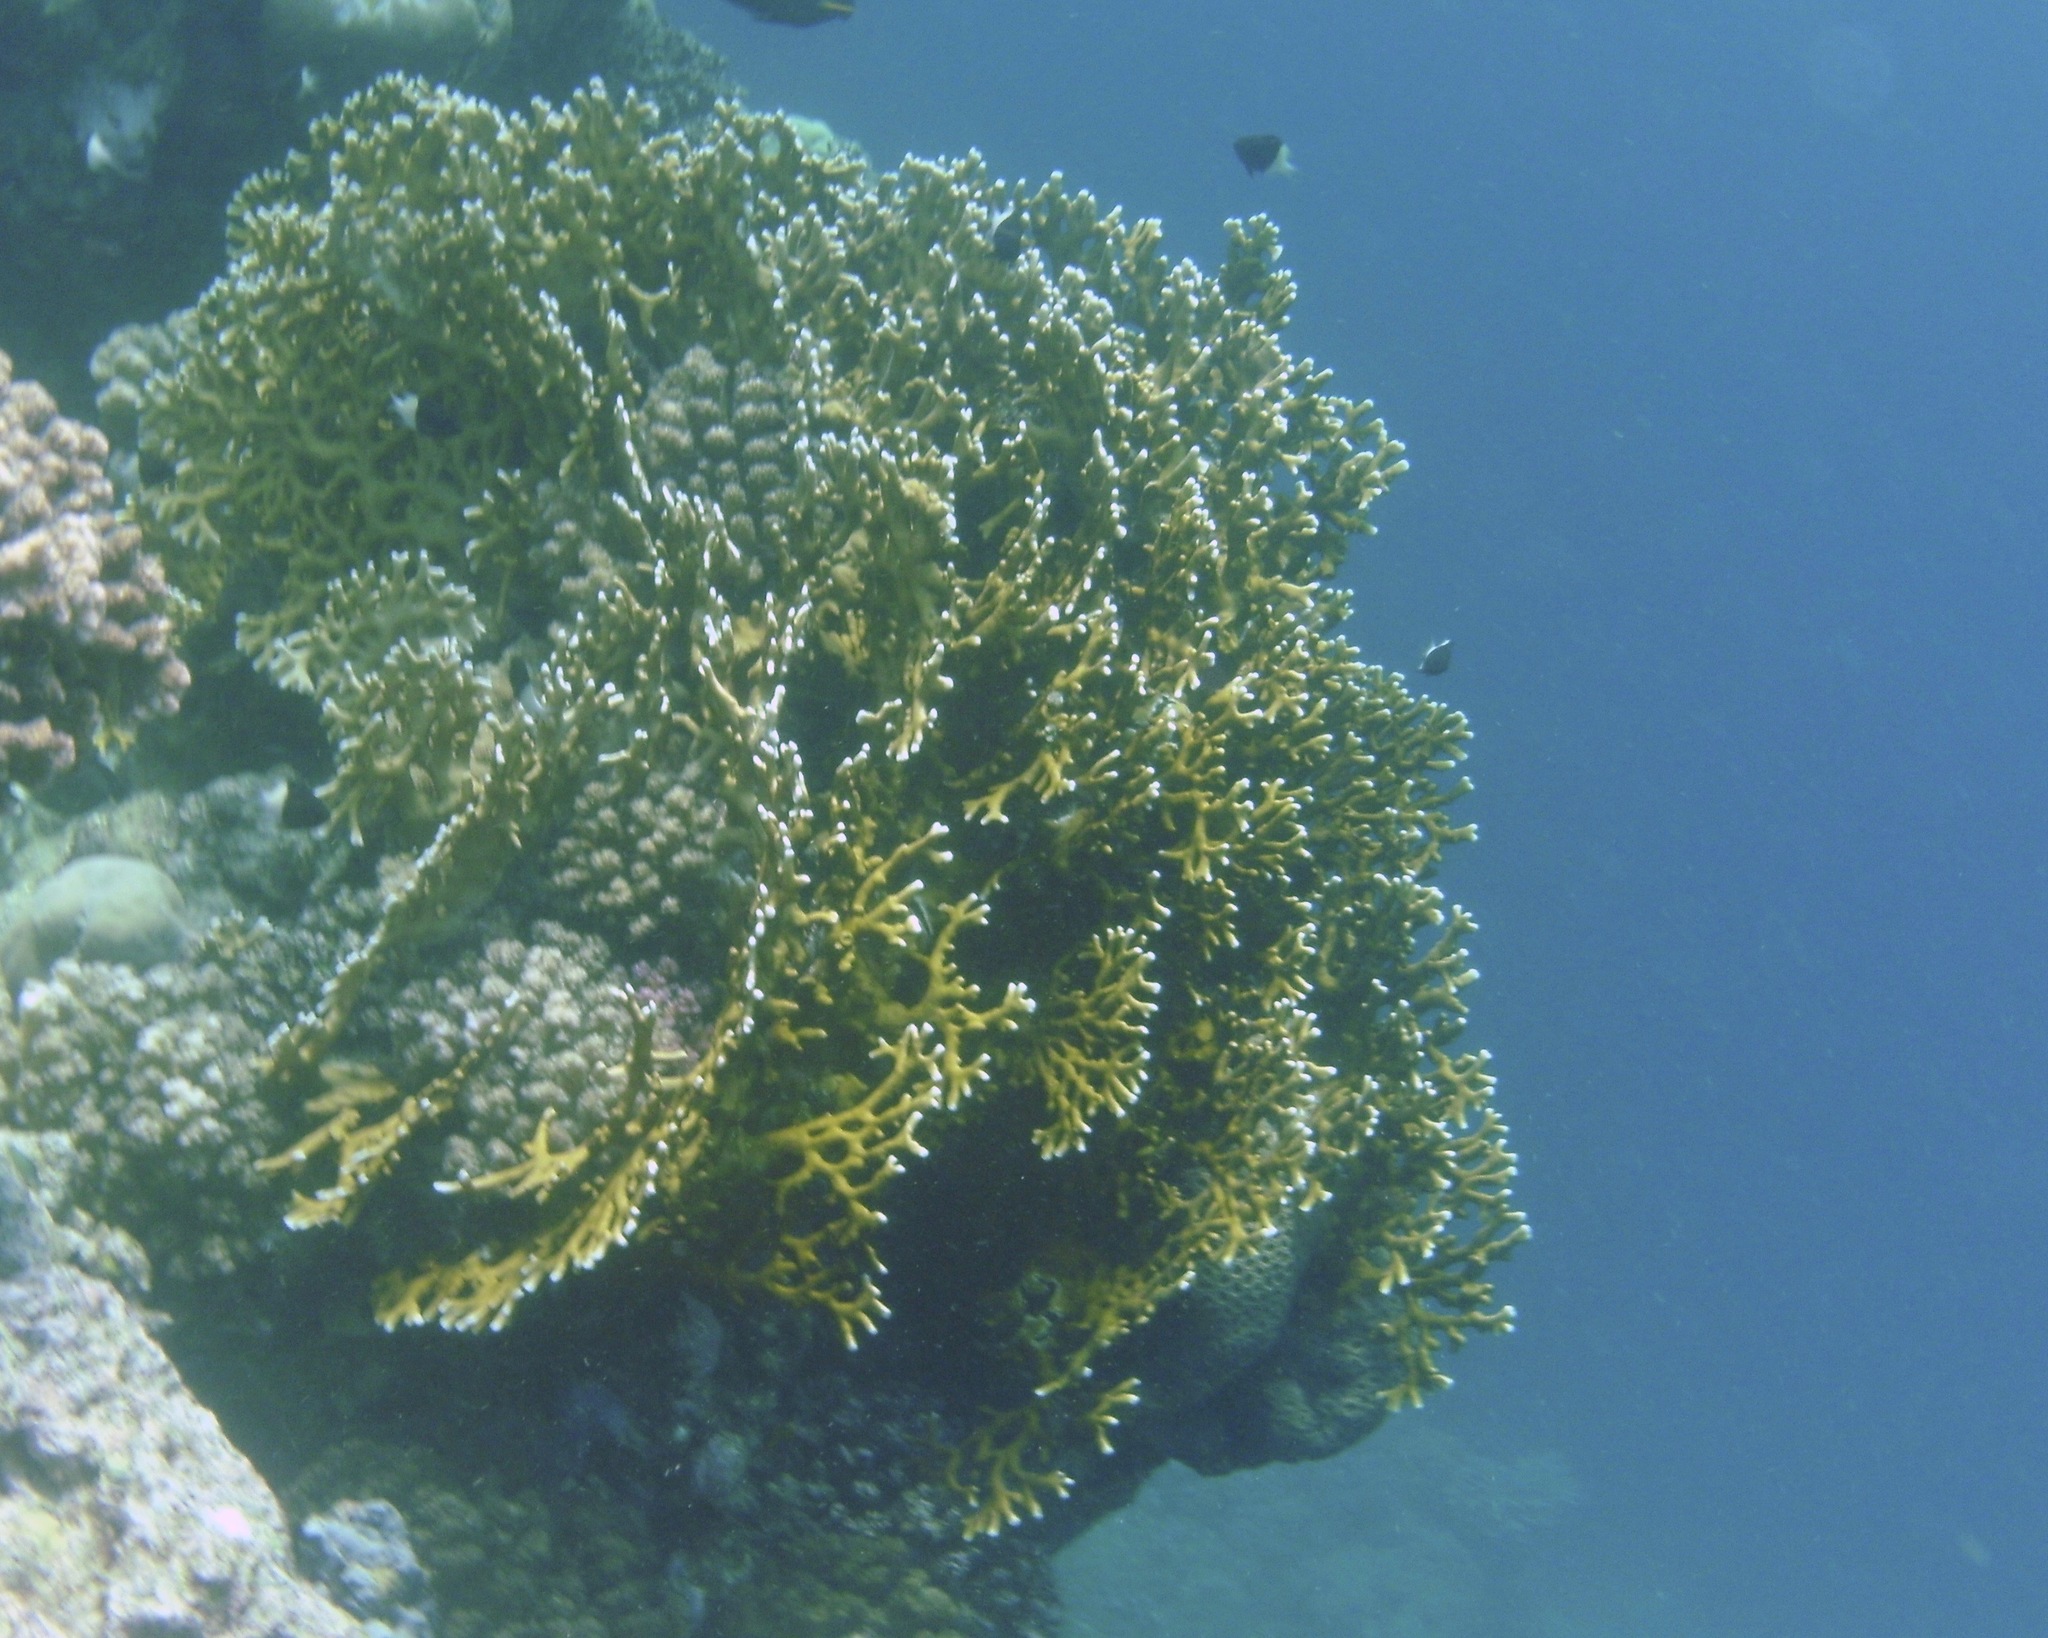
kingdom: Animalia
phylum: Cnidaria
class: Hydrozoa
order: Anthoathecata
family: Milleporidae
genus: Millepora
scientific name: Millepora dichotoma
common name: Ramified fire coral
